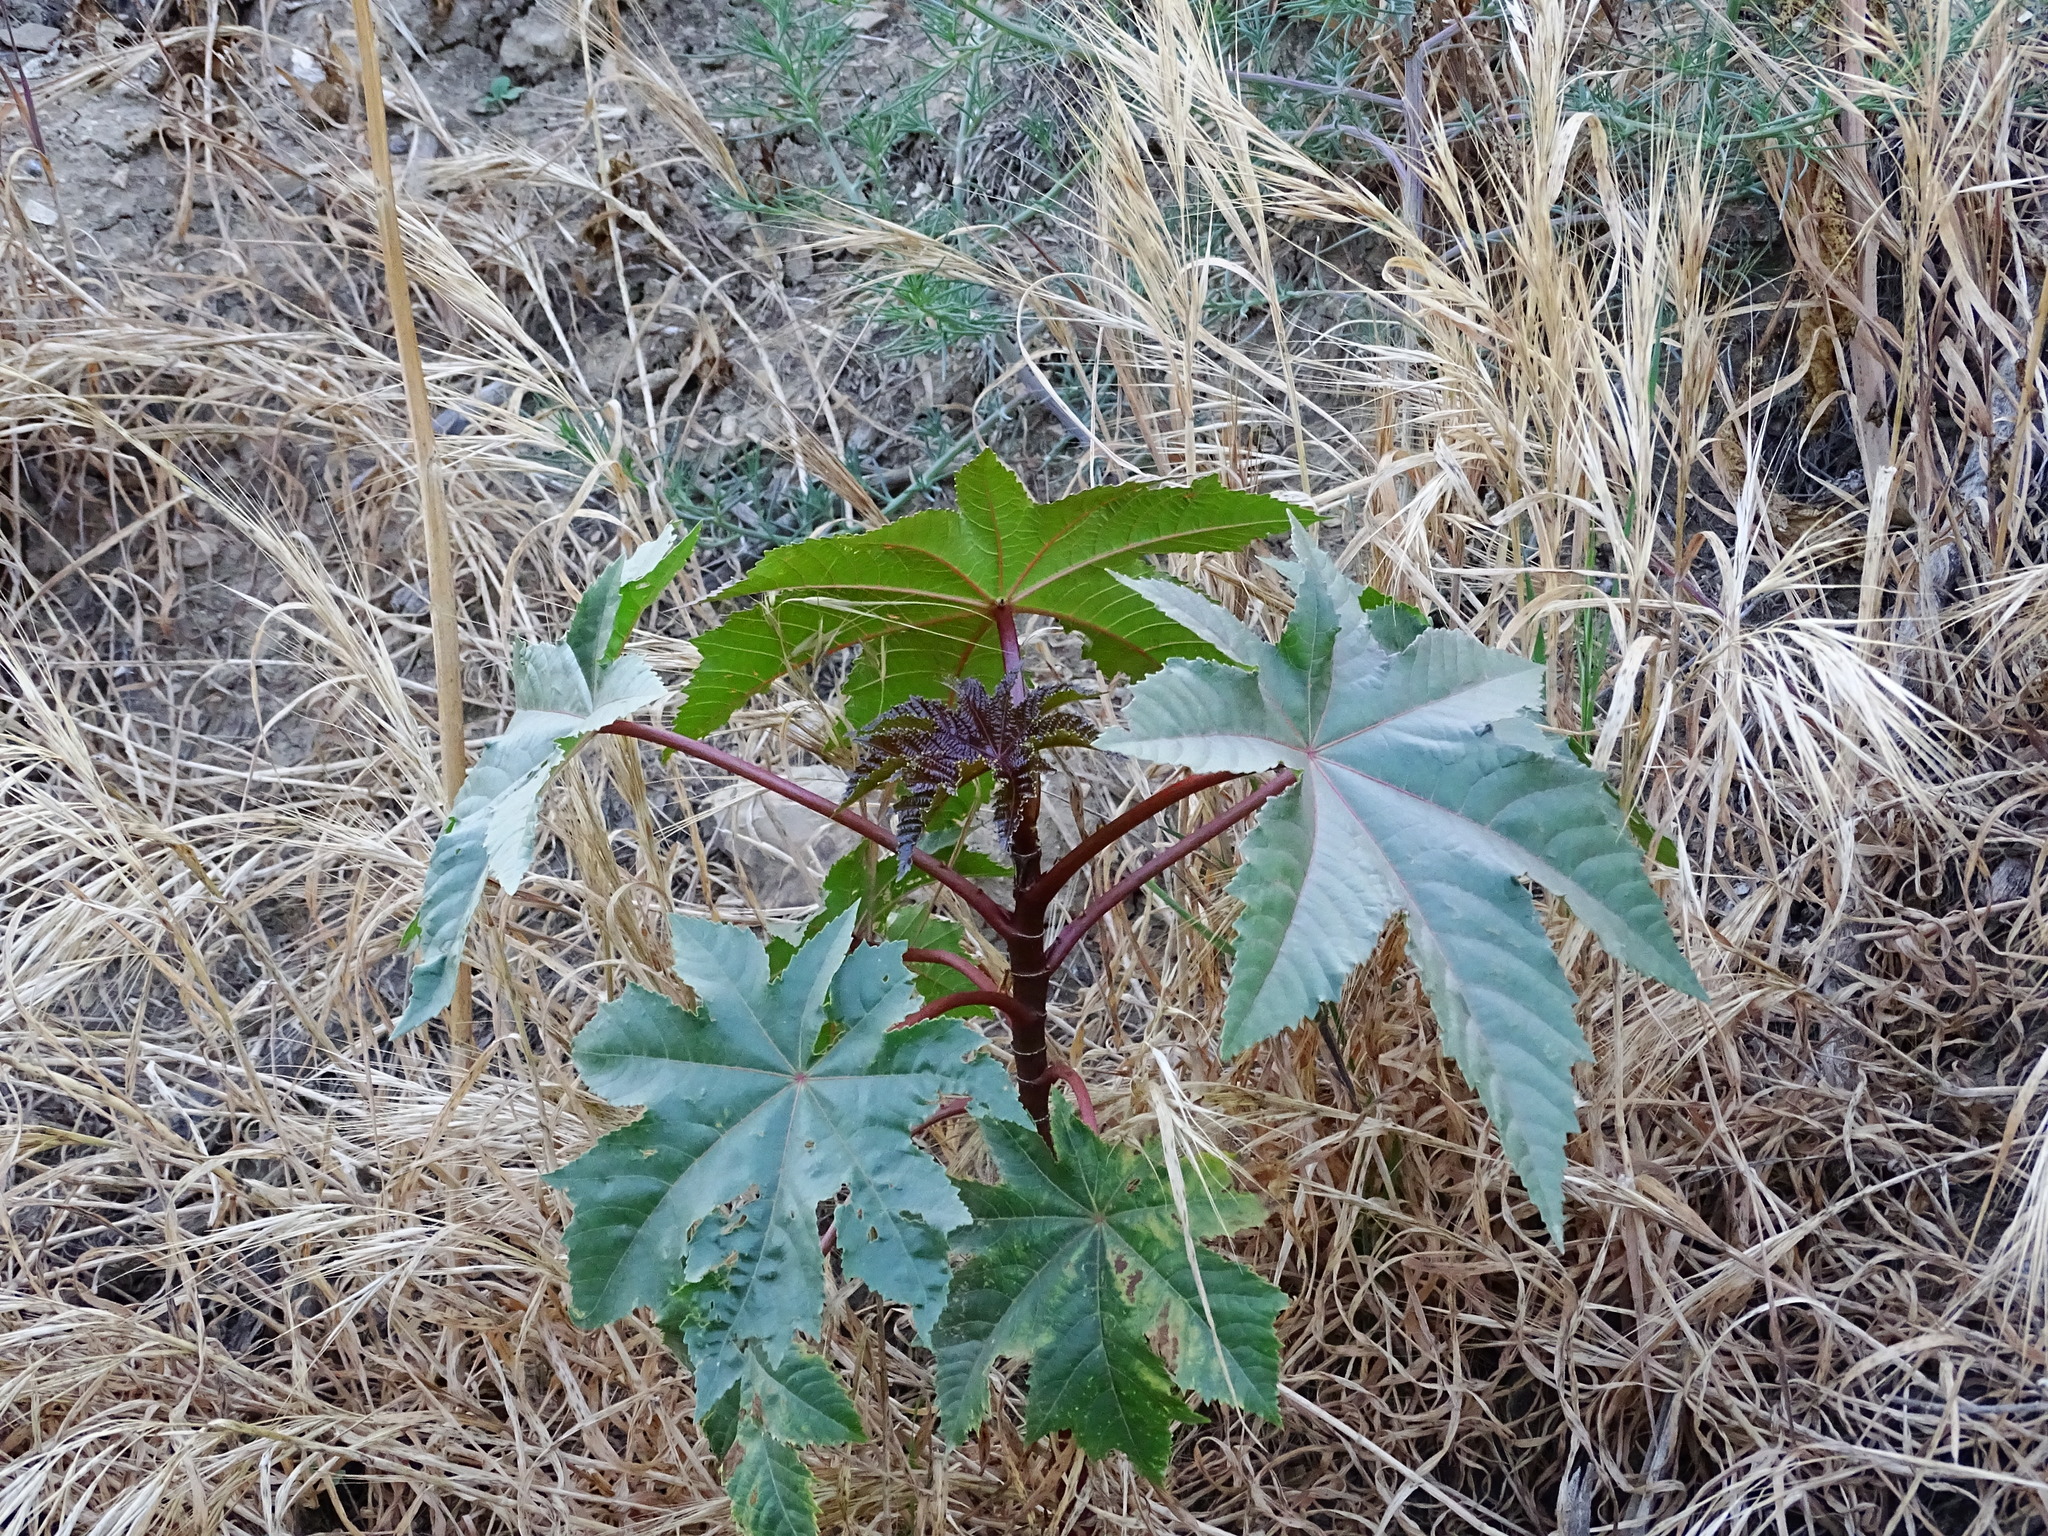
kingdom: Plantae
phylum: Tracheophyta
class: Magnoliopsida
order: Malpighiales
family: Euphorbiaceae
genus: Ricinus
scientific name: Ricinus communis
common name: Castor-oil-plant
